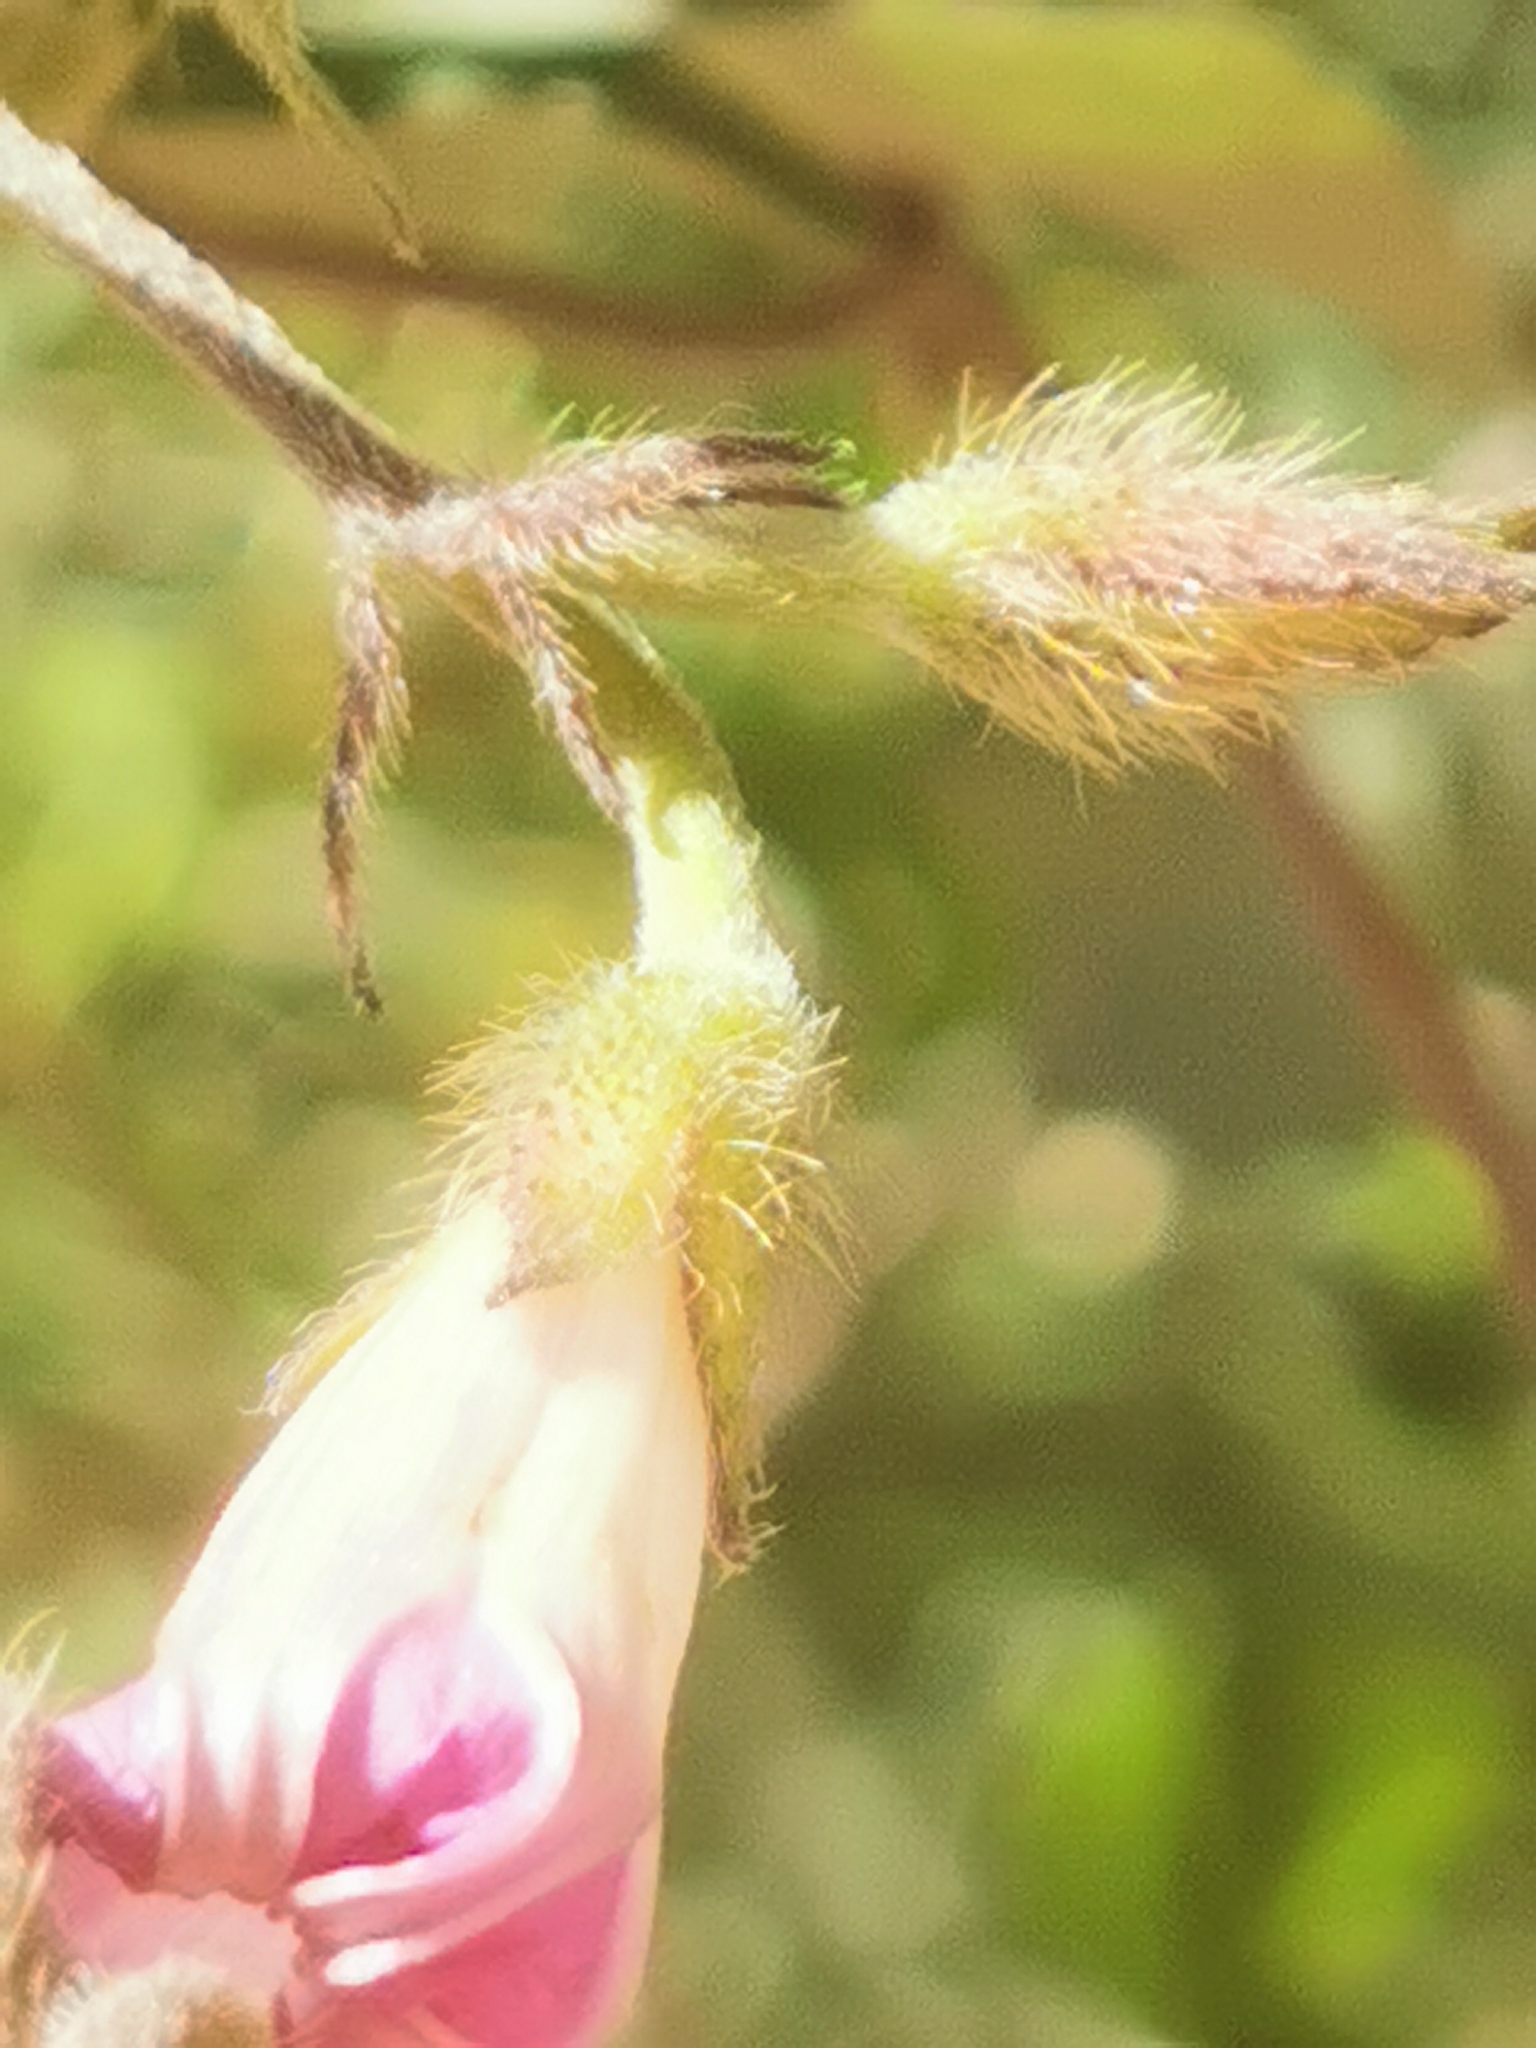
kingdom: Plantae
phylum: Tracheophyta
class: Magnoliopsida
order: Solanales
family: Convolvulaceae
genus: Ipomoea
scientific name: Ipomoea purpurea
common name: Common morning-glory
